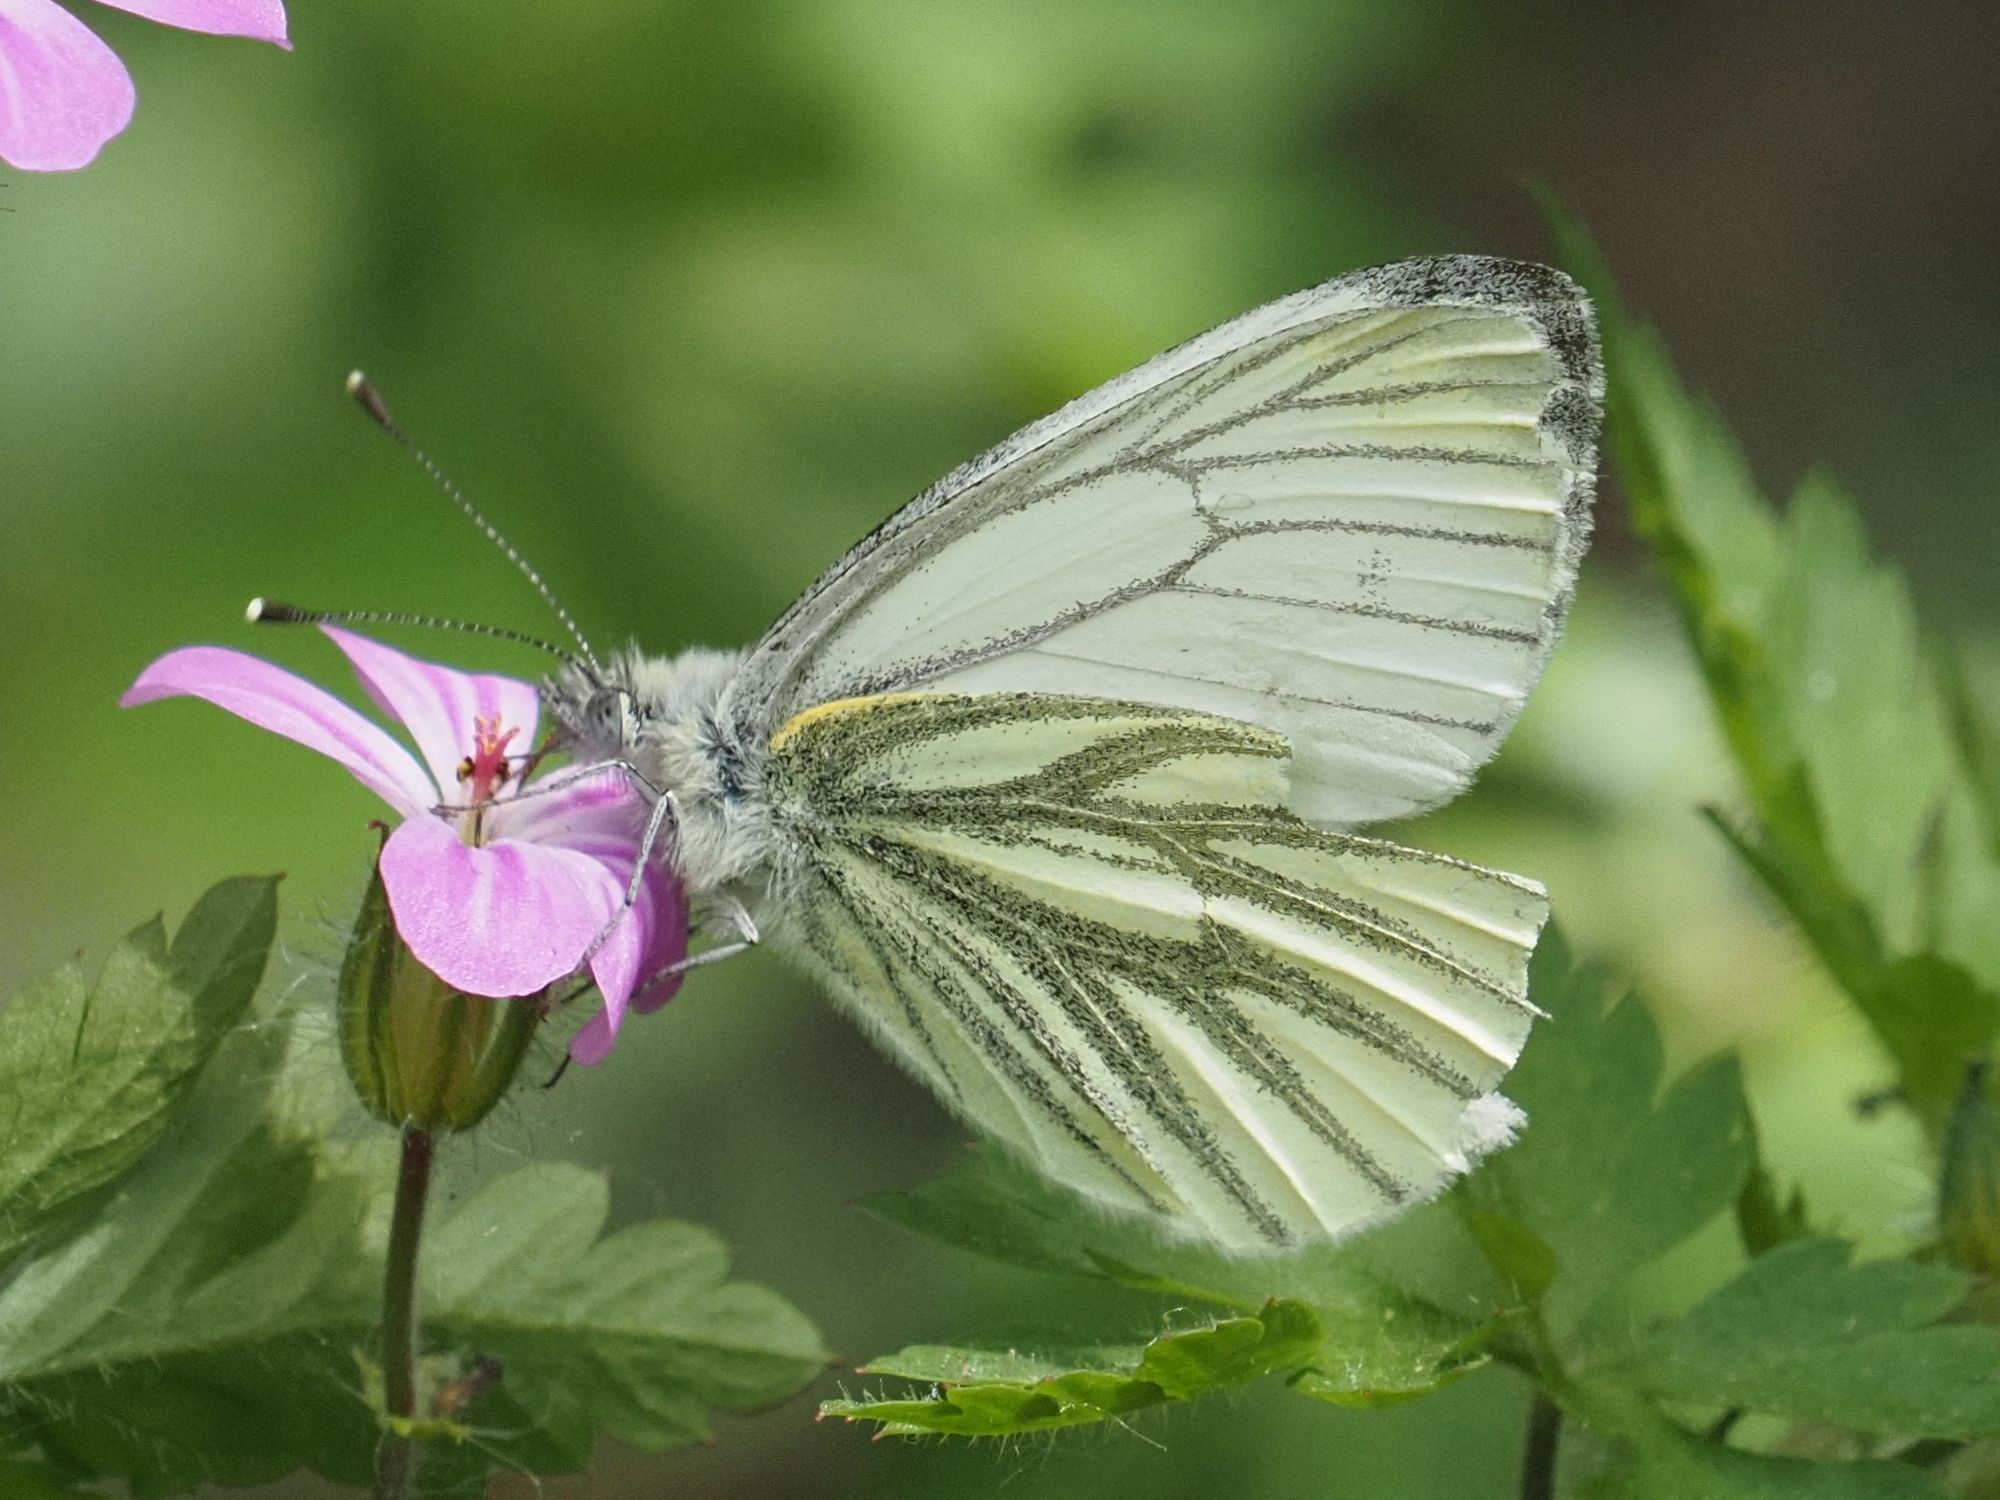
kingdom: Animalia
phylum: Arthropoda
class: Insecta
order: Lepidoptera
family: Pieridae
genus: Pieris
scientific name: Pieris napi
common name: Green-veined white
